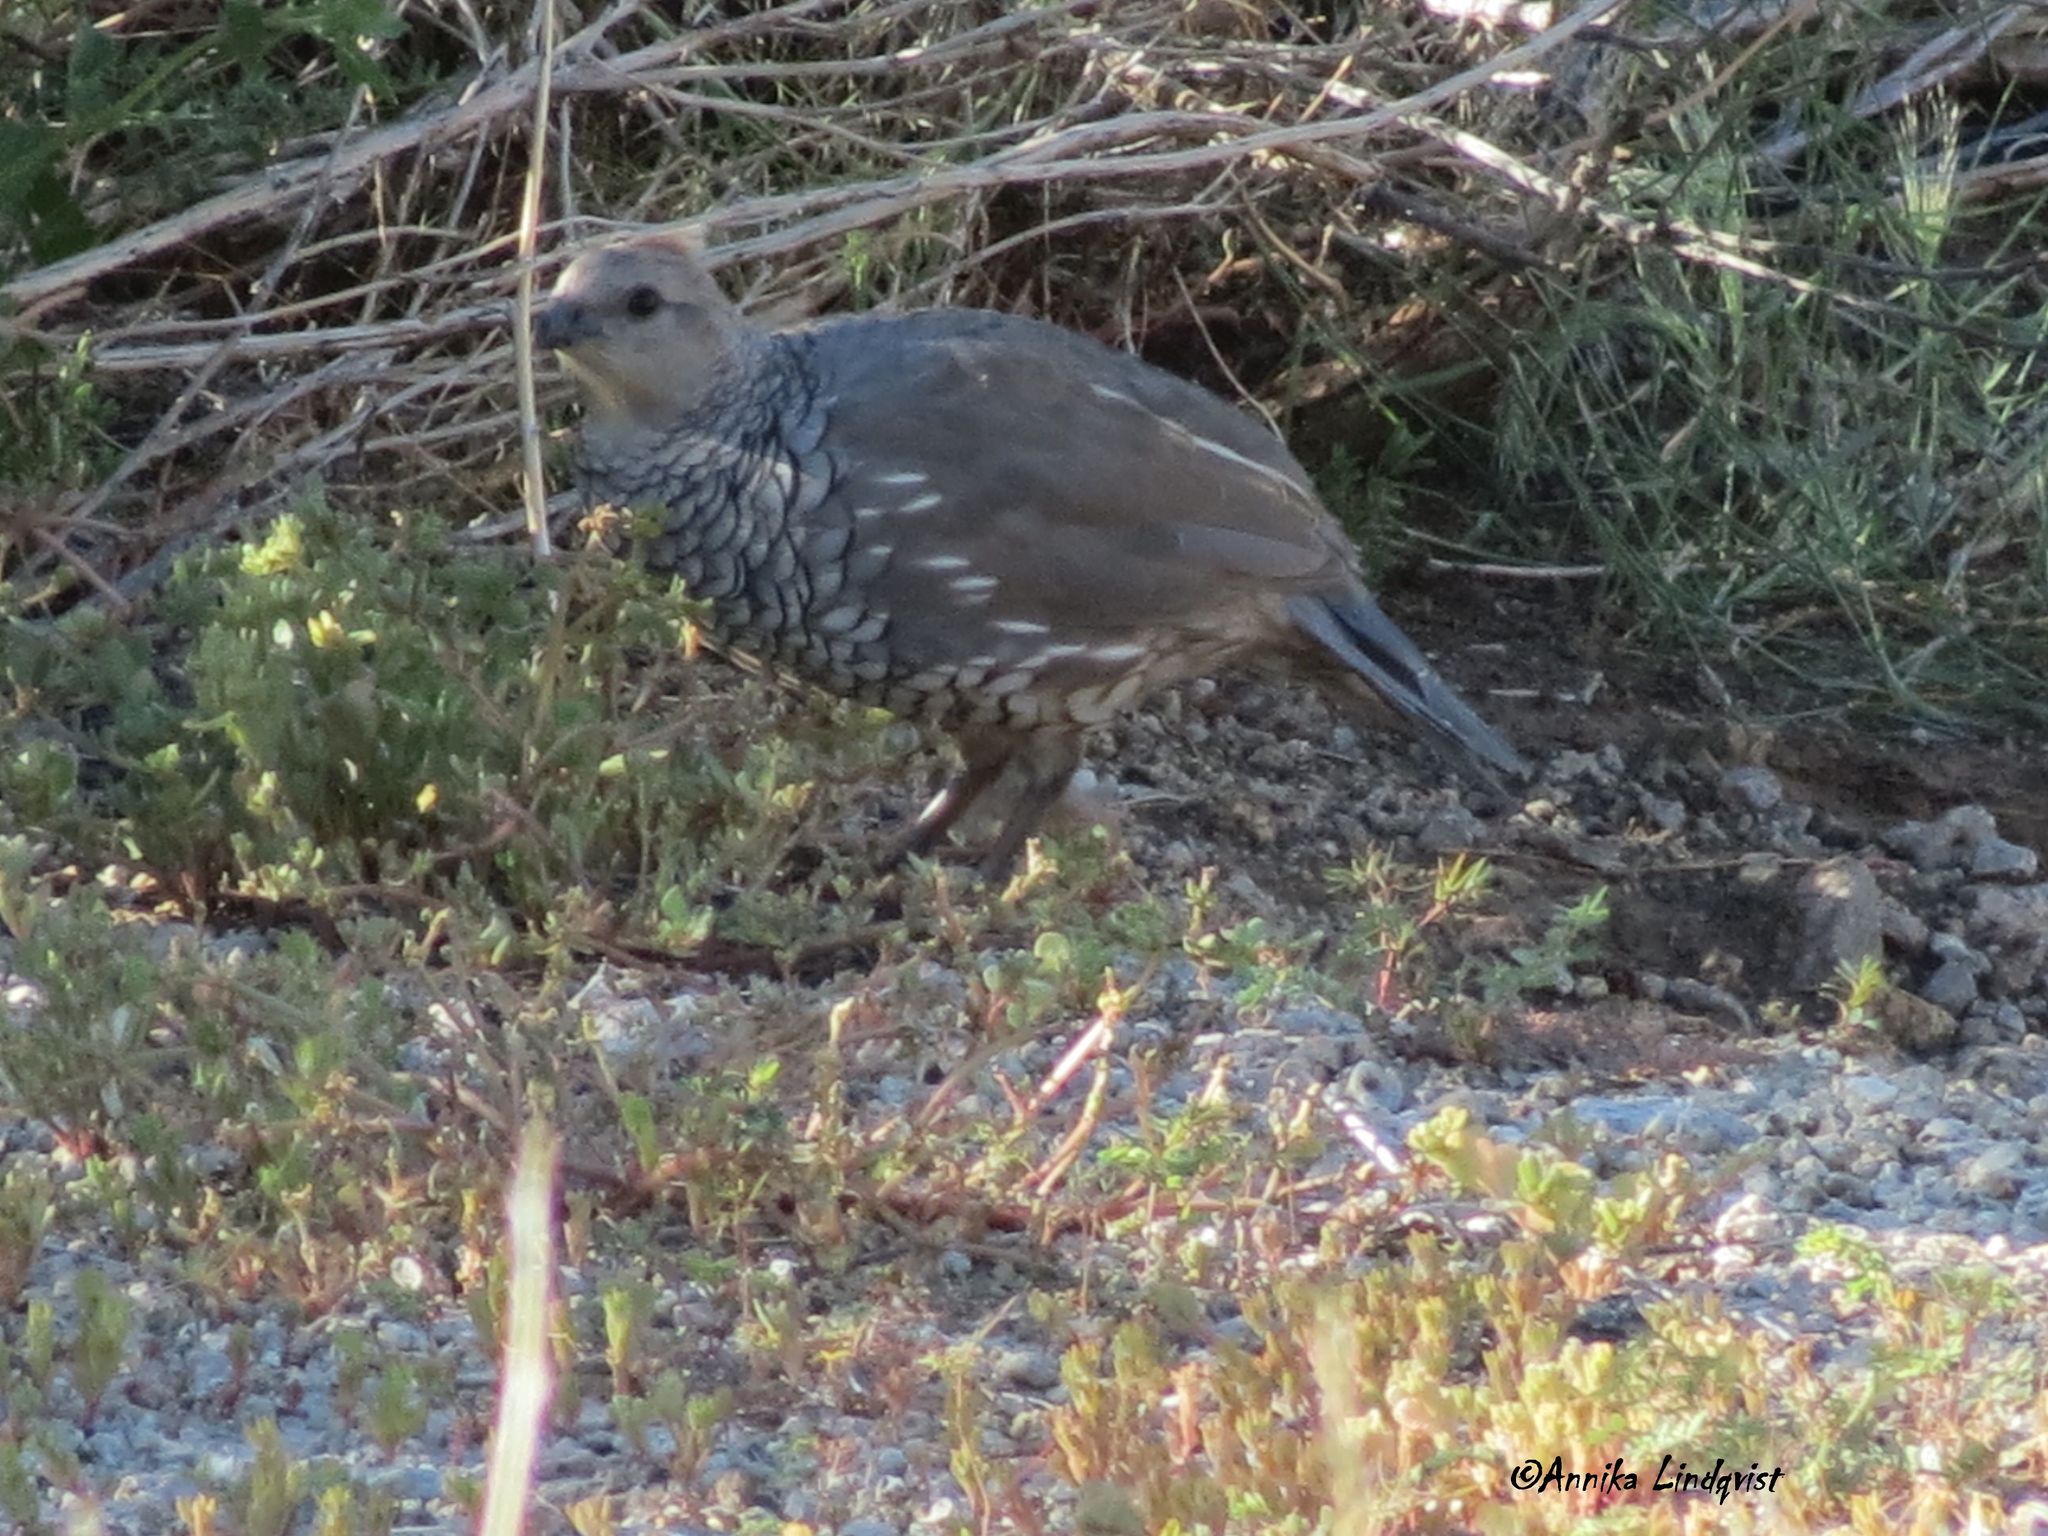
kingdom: Animalia
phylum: Chordata
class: Aves
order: Galliformes
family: Odontophoridae
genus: Callipepla
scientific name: Callipepla squamata
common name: Scaled quail
